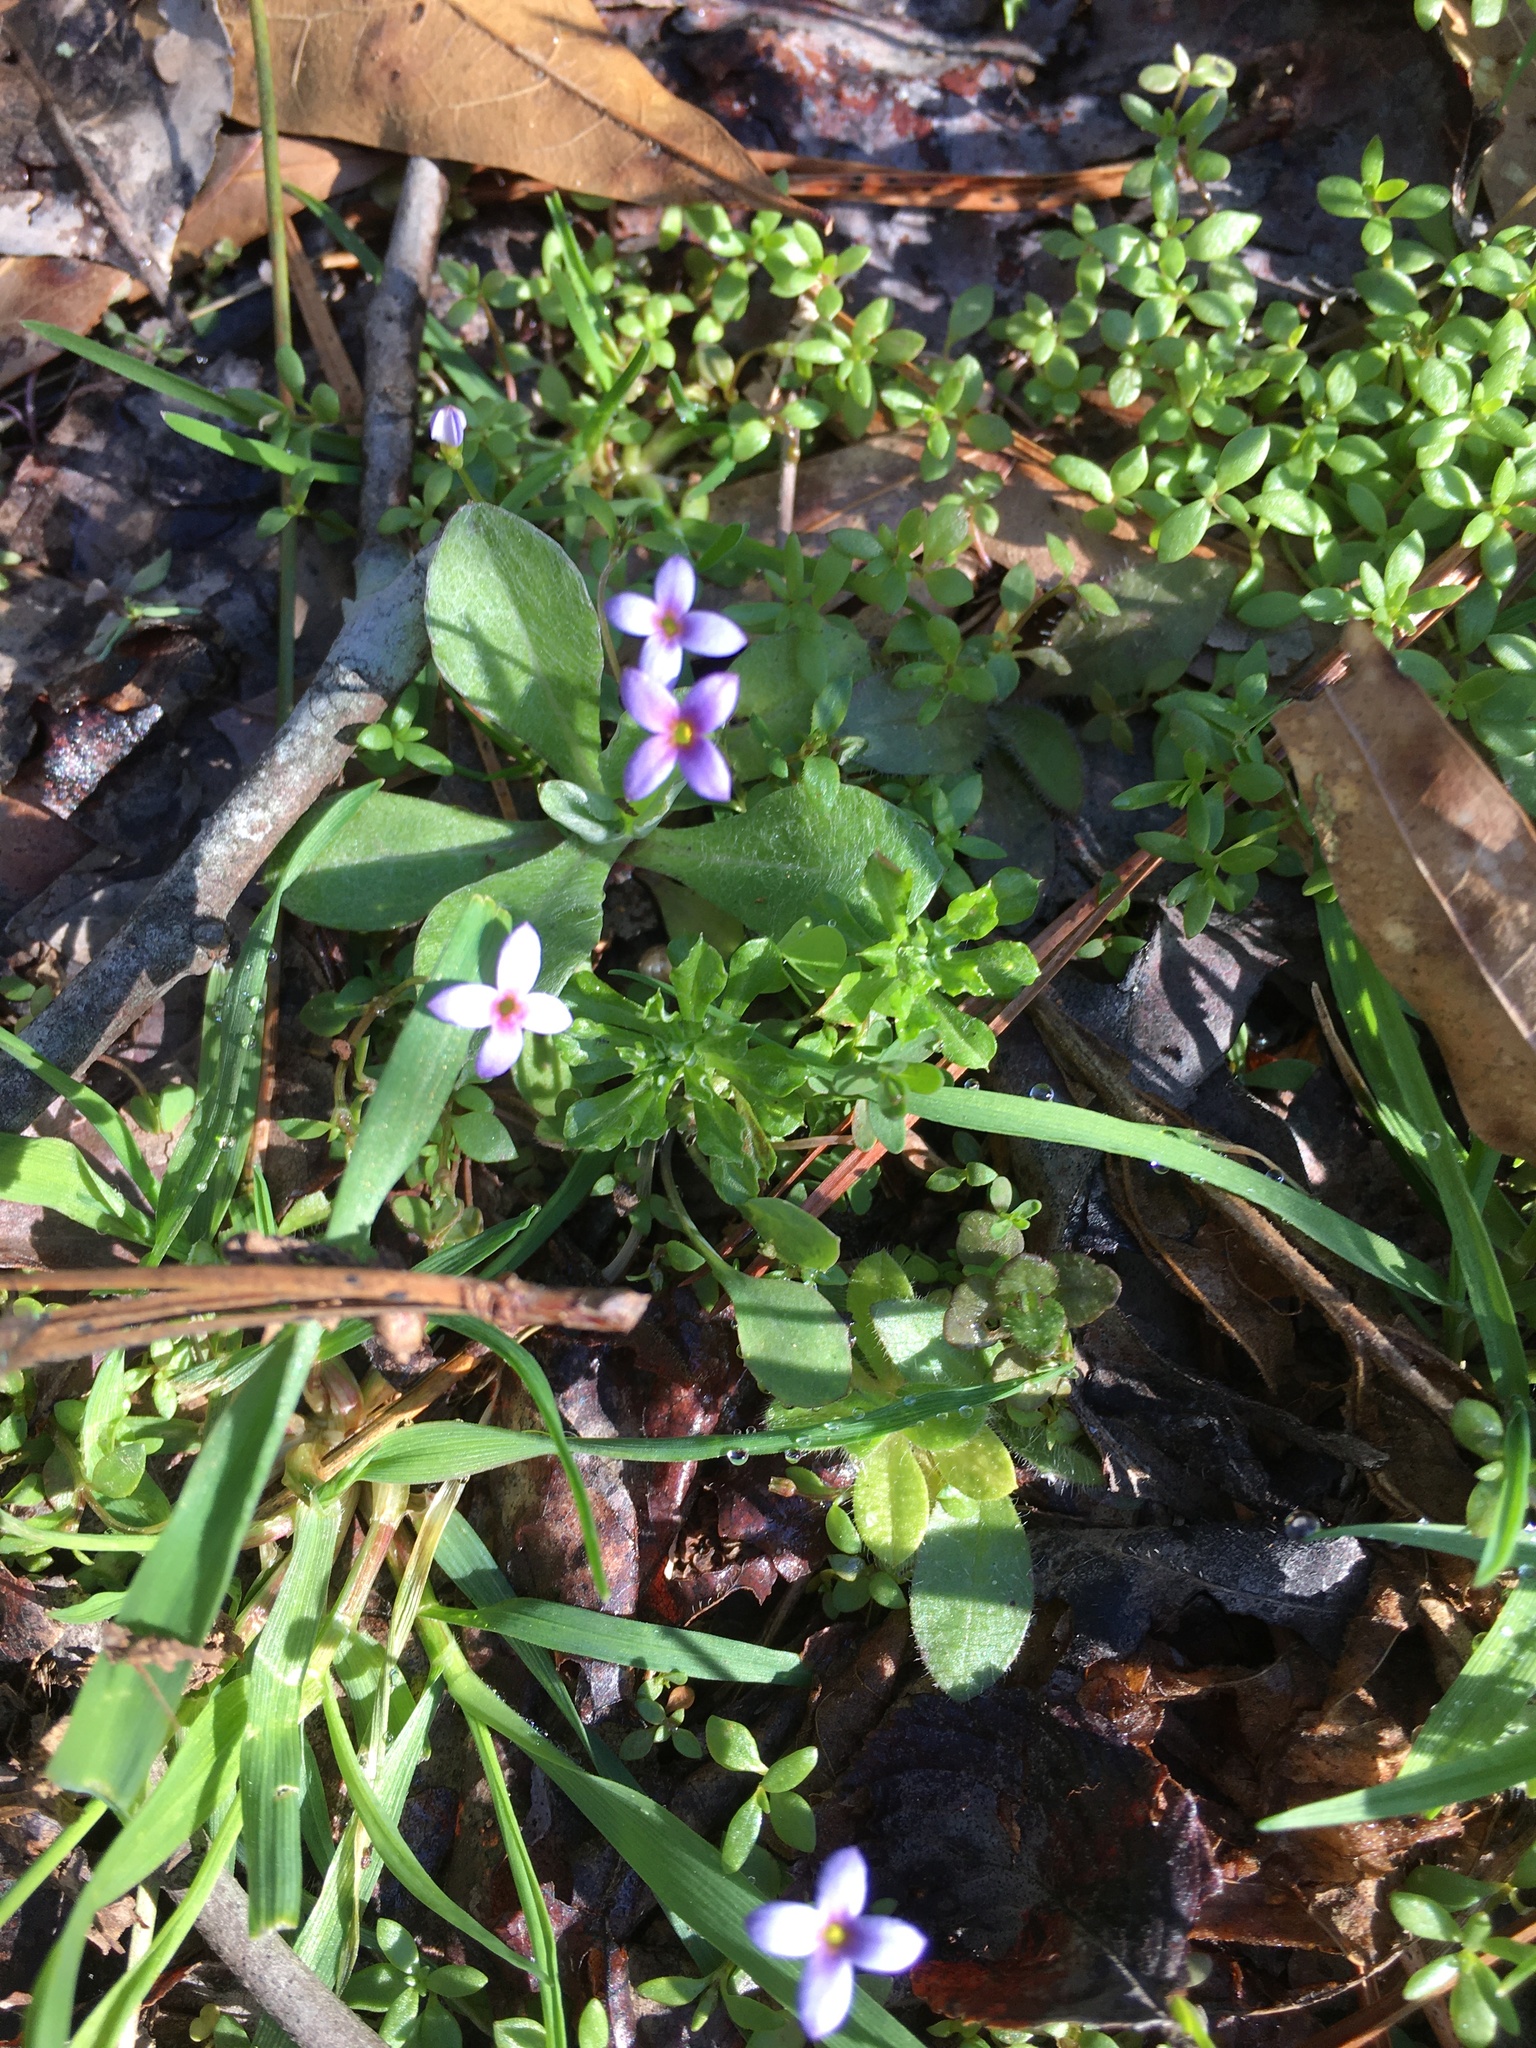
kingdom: Plantae
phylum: Tracheophyta
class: Magnoliopsida
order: Gentianales
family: Rubiaceae
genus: Houstonia
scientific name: Houstonia pusilla
